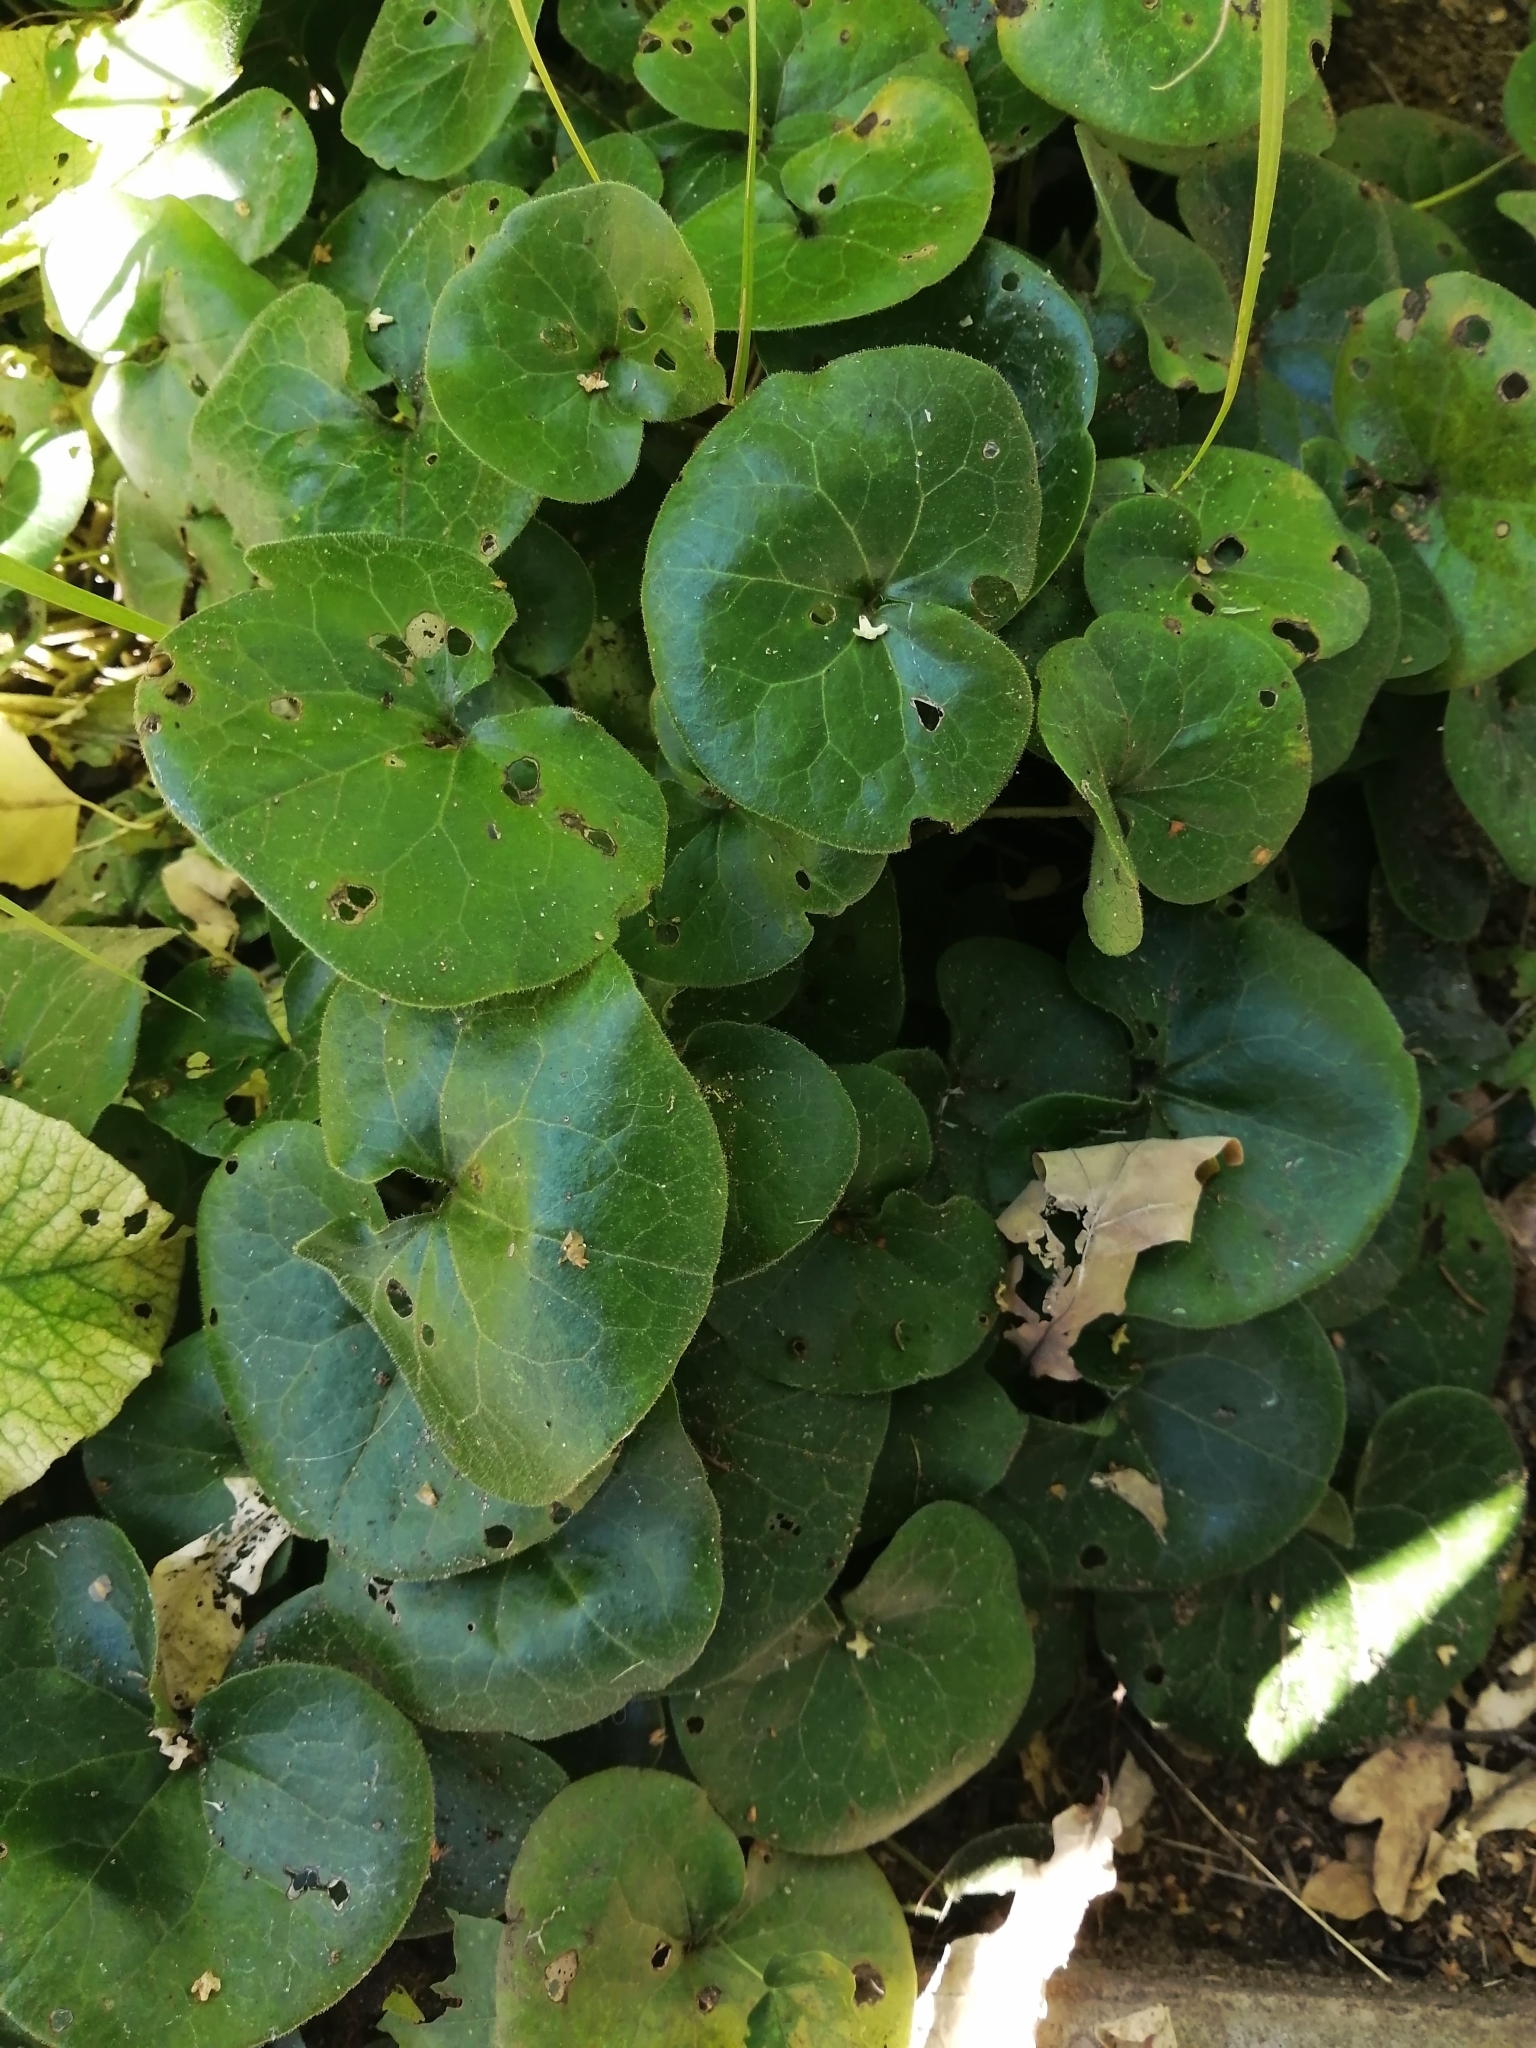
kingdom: Plantae
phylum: Tracheophyta
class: Magnoliopsida
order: Piperales
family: Aristolochiaceae
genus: Asarum
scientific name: Asarum europaeum
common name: Asarabacca
